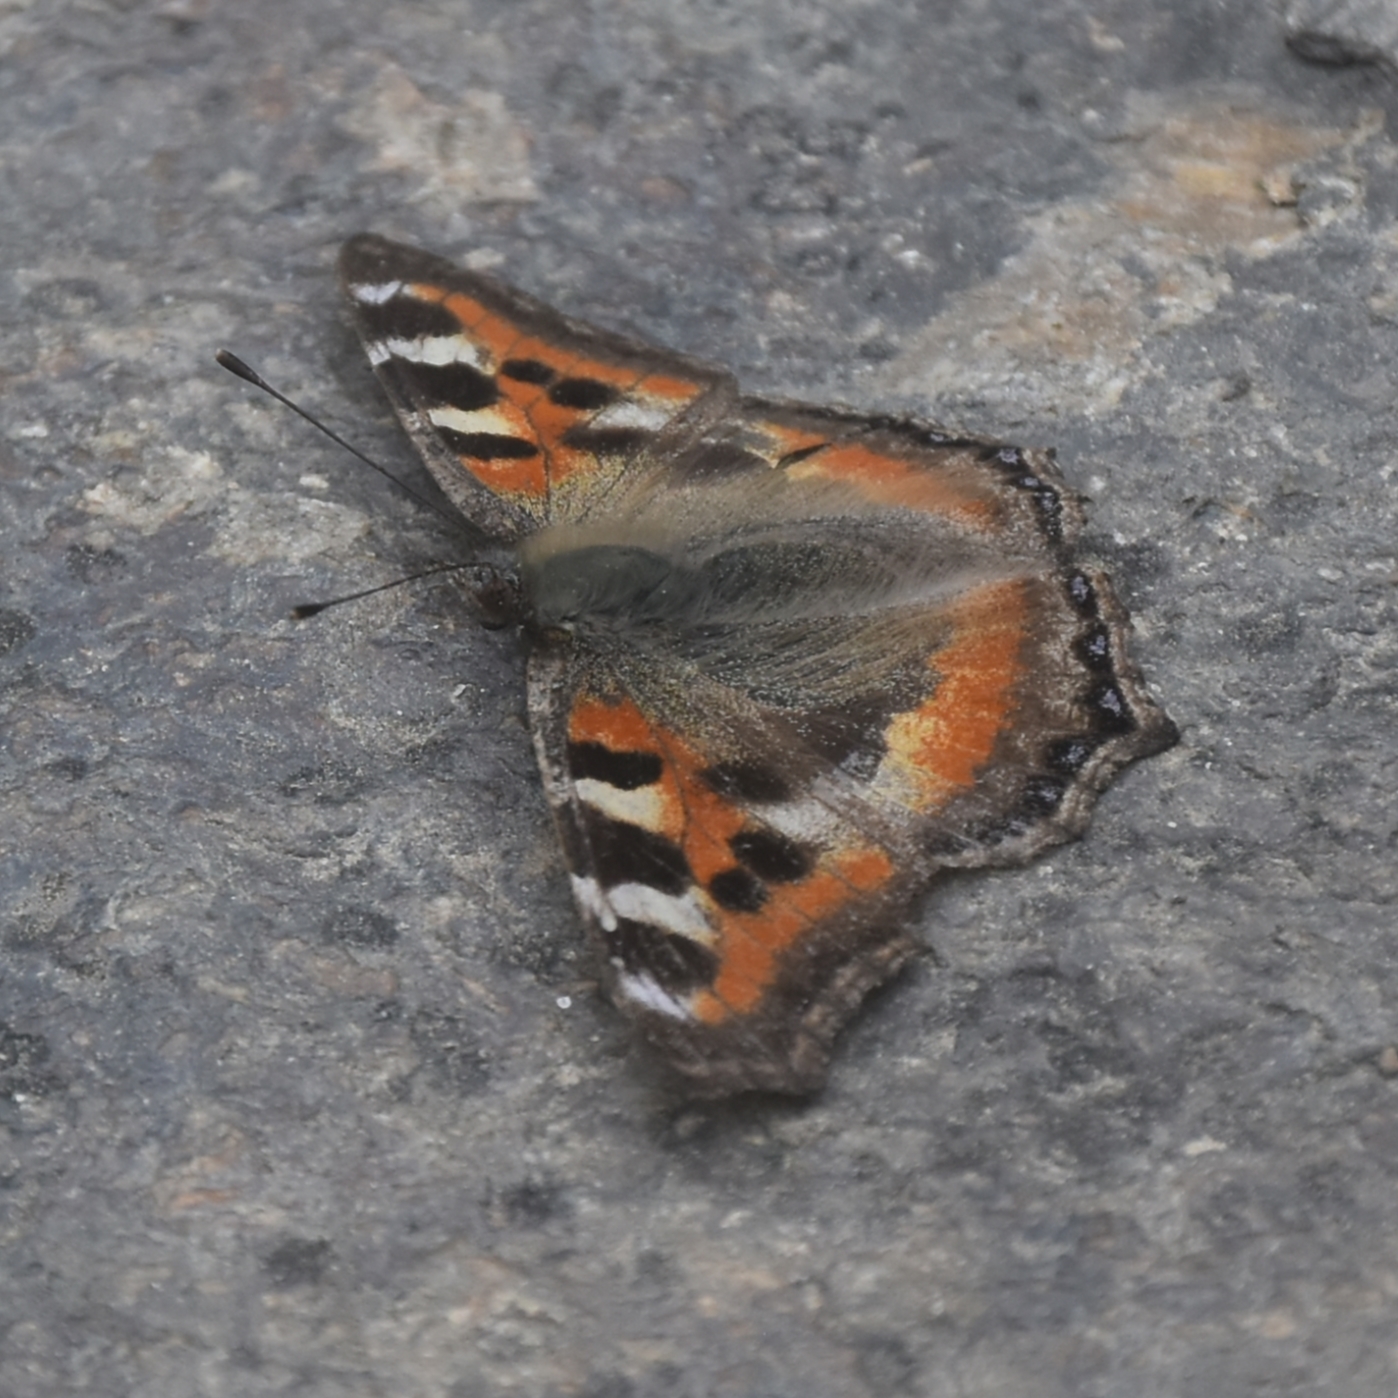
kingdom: Animalia
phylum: Arthropoda
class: Insecta
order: Lepidoptera
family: Nymphalidae
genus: Aglais
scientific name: Aglais caschmirensis
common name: Indian tortoiseshell
